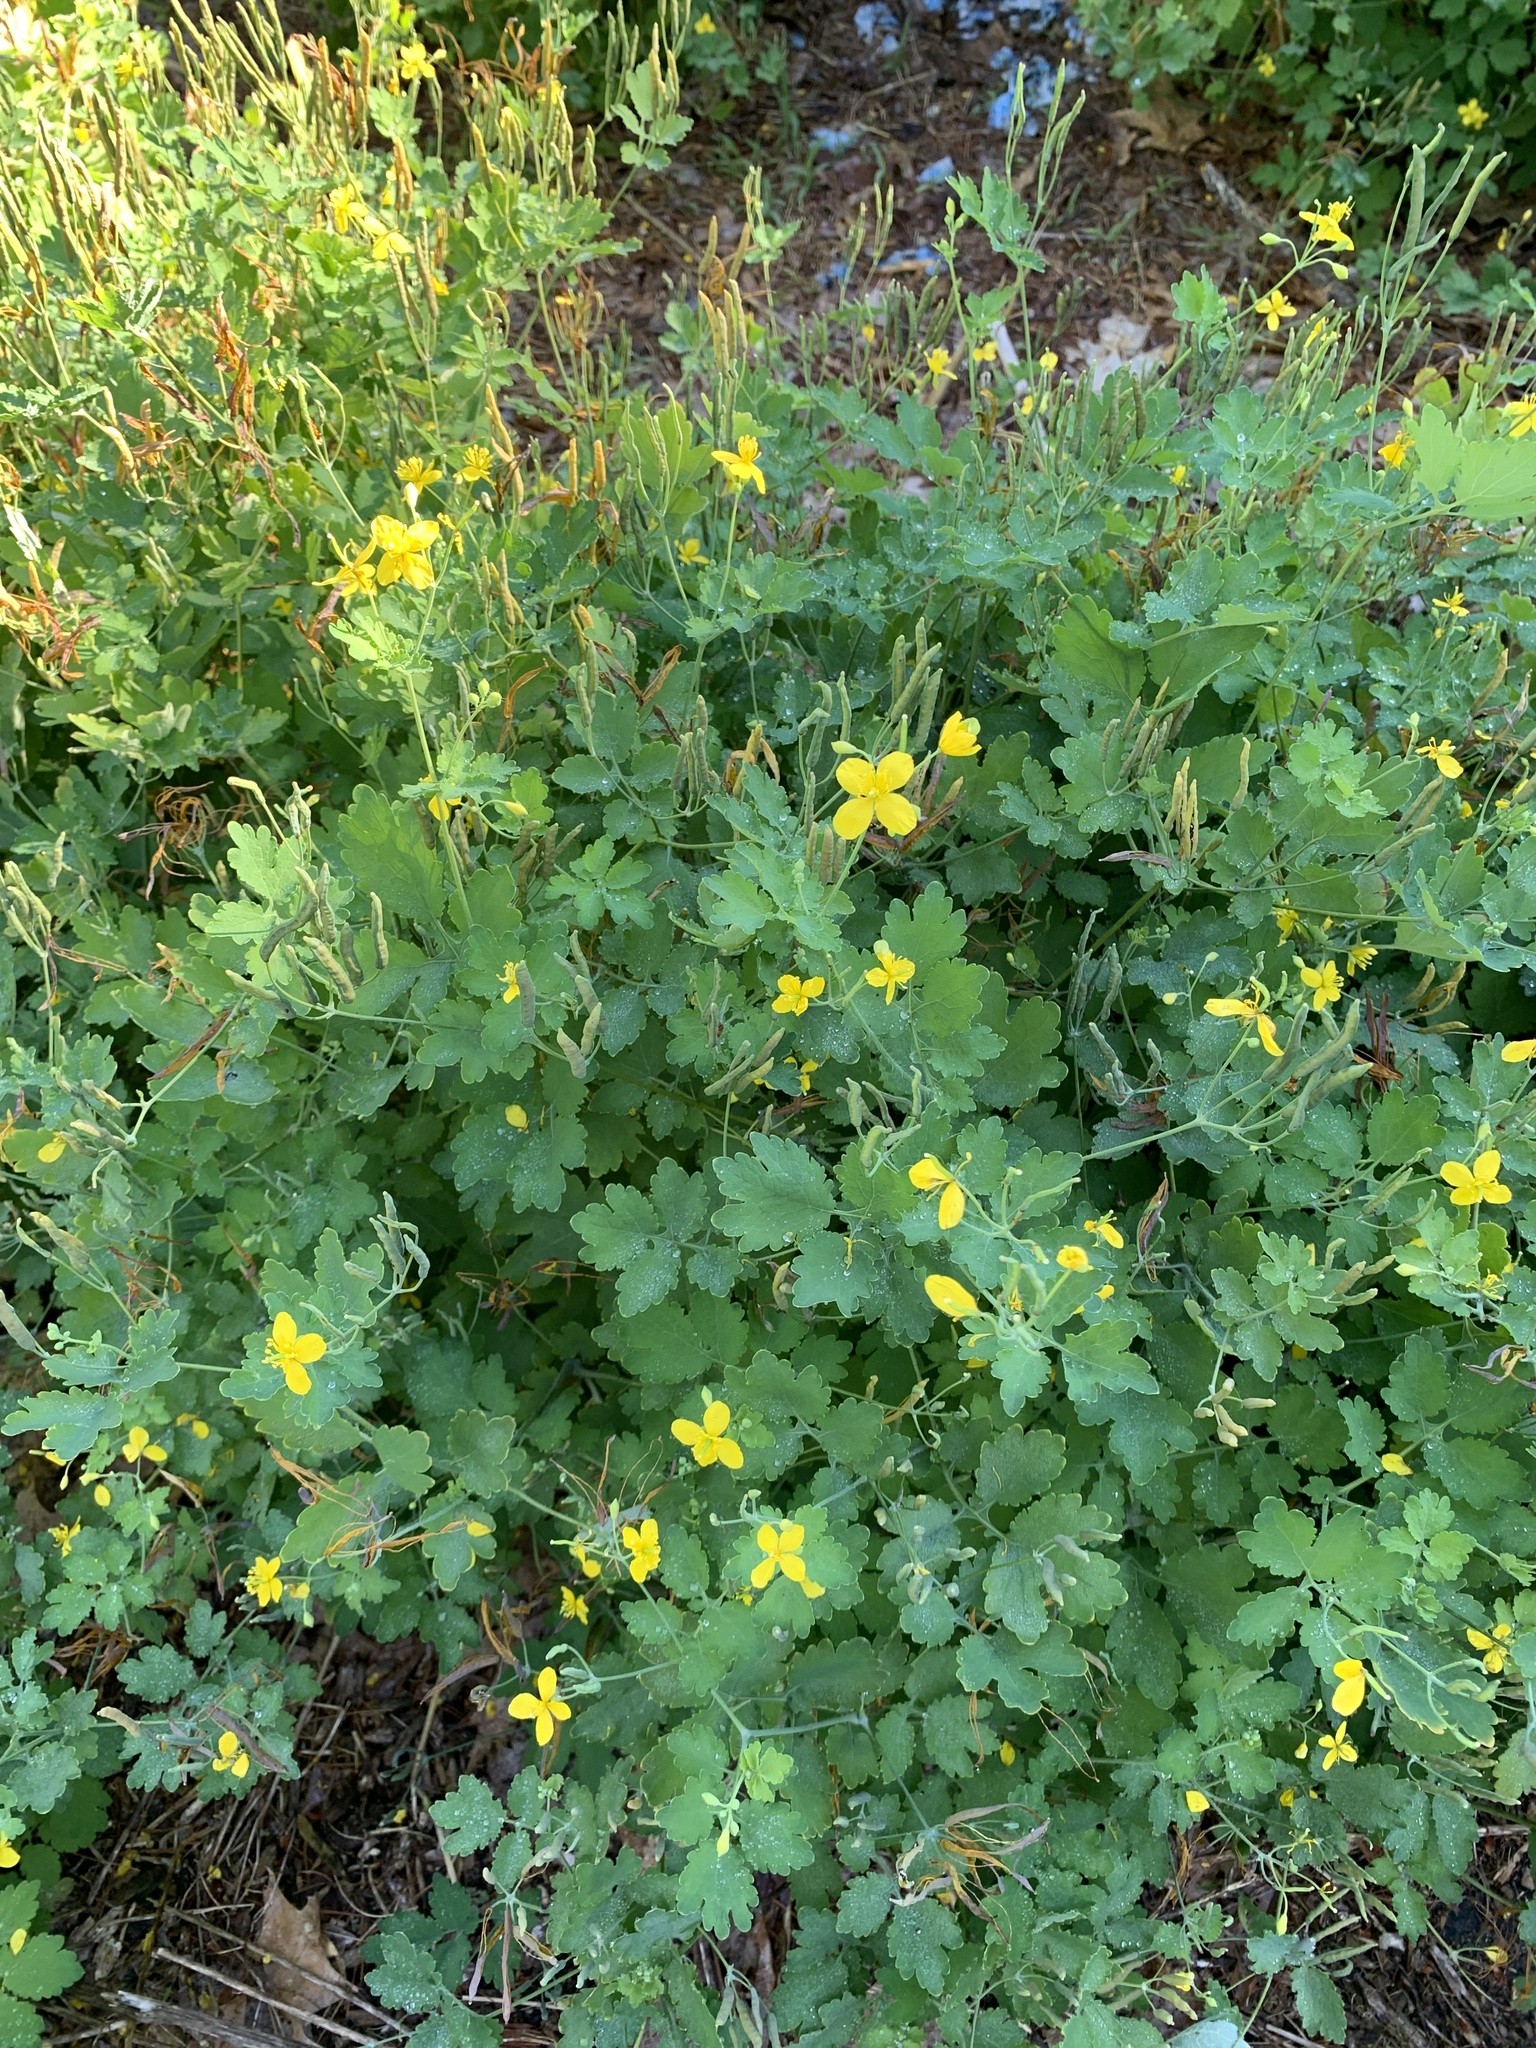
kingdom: Plantae
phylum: Tracheophyta
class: Magnoliopsida
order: Ranunculales
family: Papaveraceae
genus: Chelidonium
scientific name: Chelidonium majus
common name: Greater celandine
